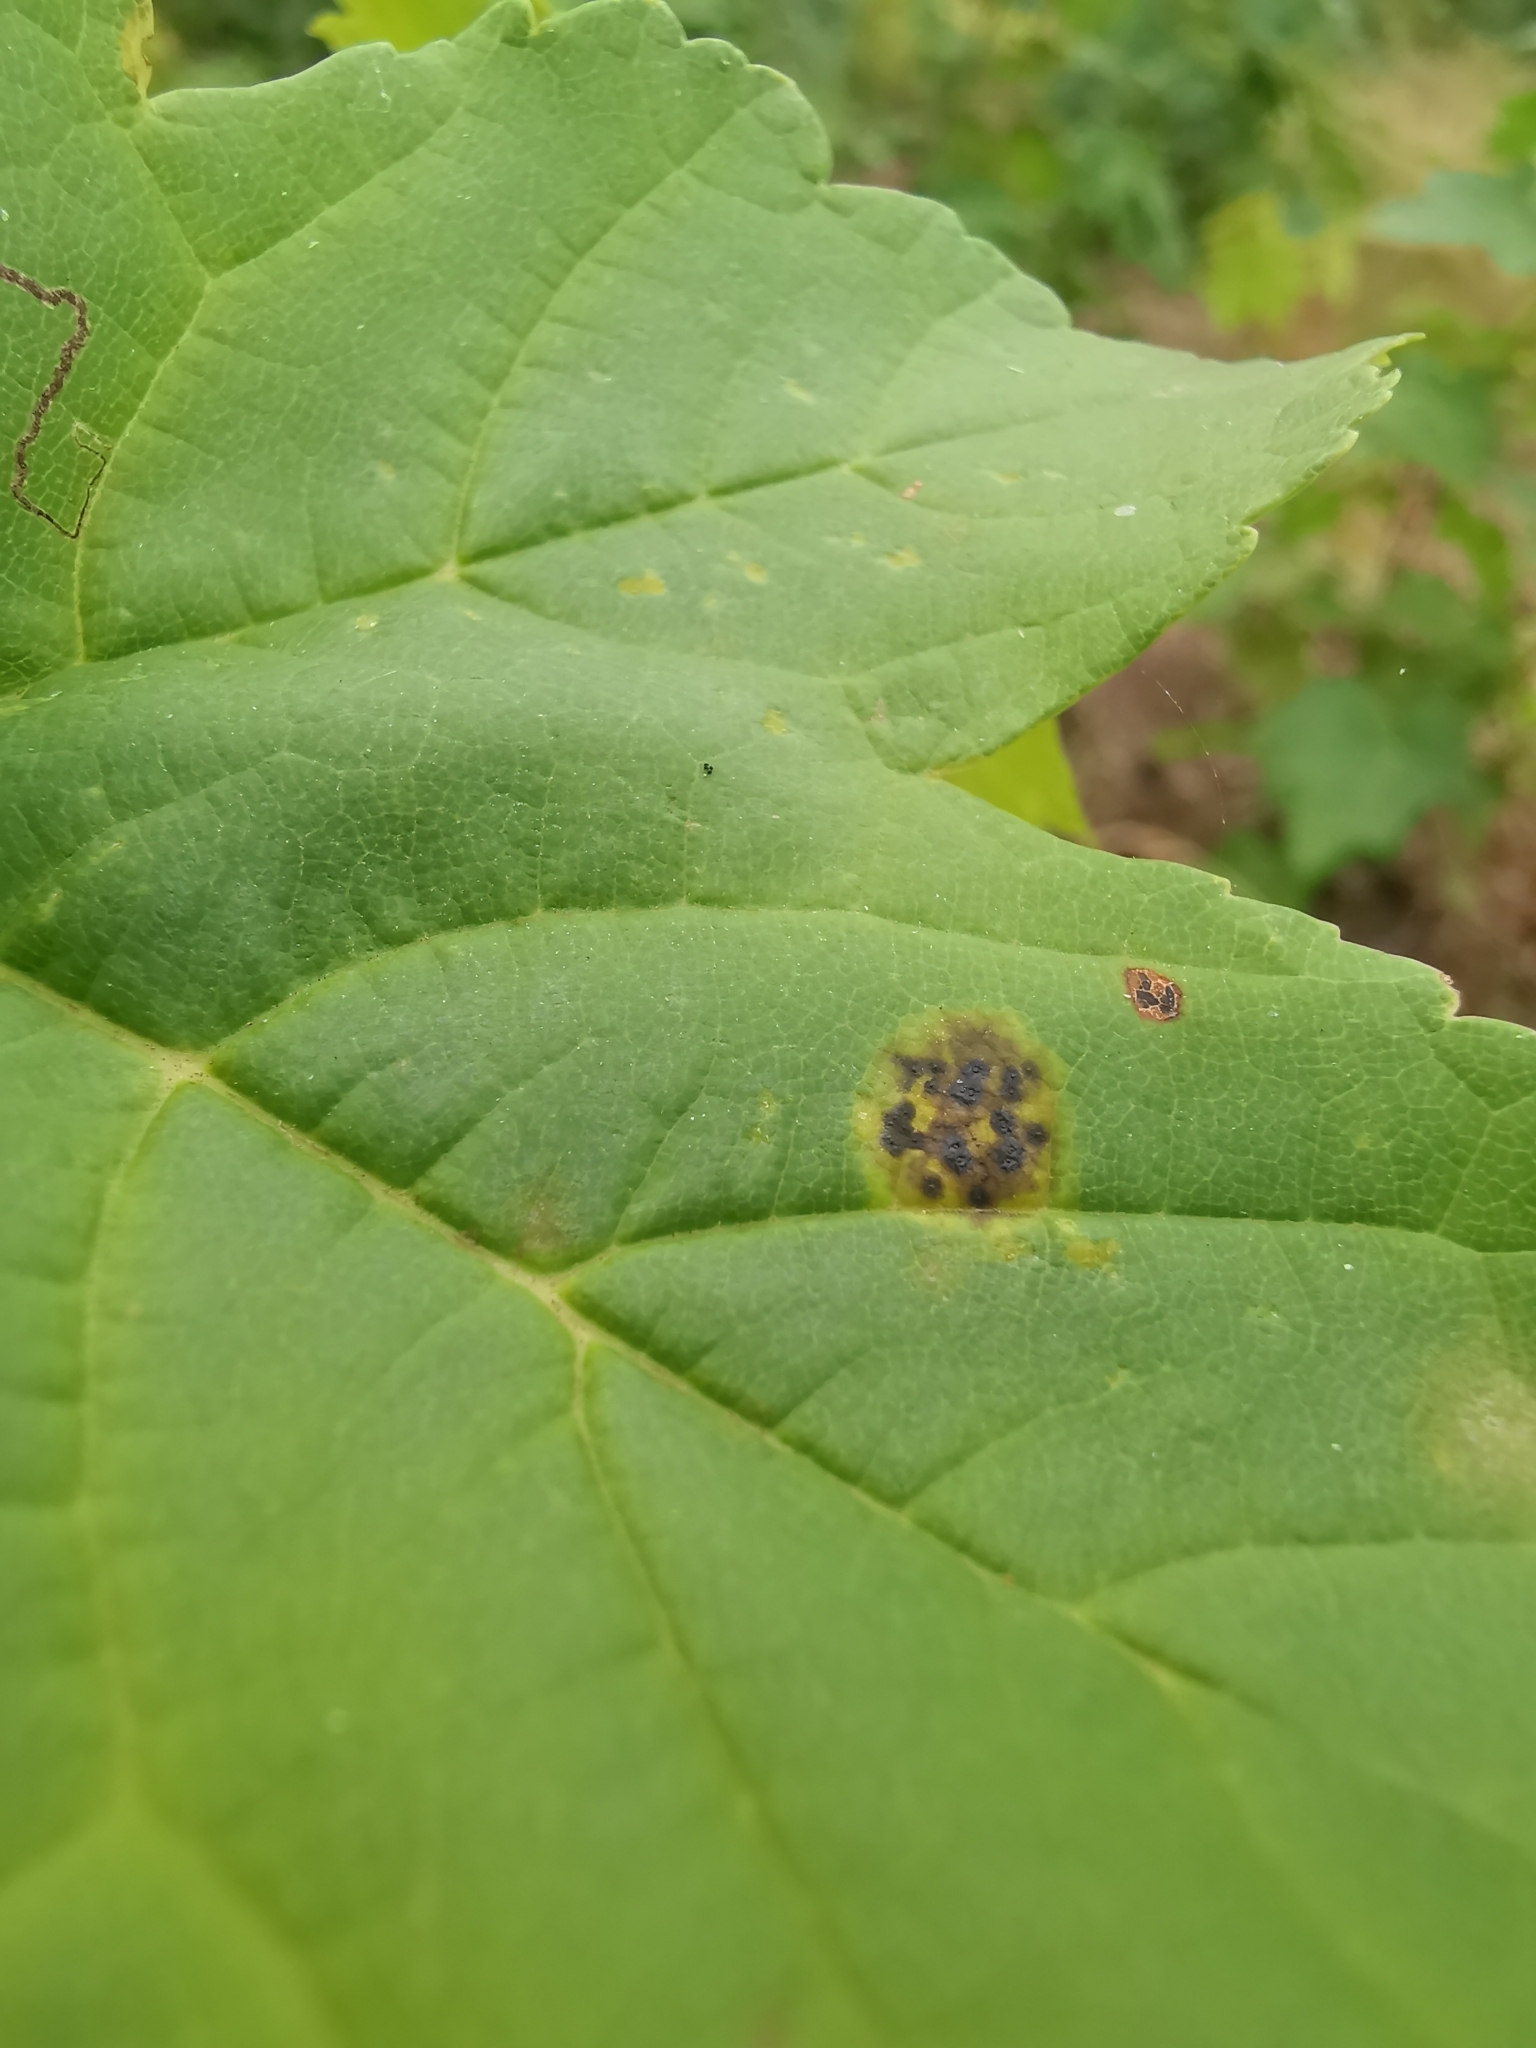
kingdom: Fungi
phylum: Ascomycota
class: Leotiomycetes
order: Rhytismatales
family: Rhytismataceae
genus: Rhytisma
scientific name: Rhytisma acerinum
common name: European tar spot
